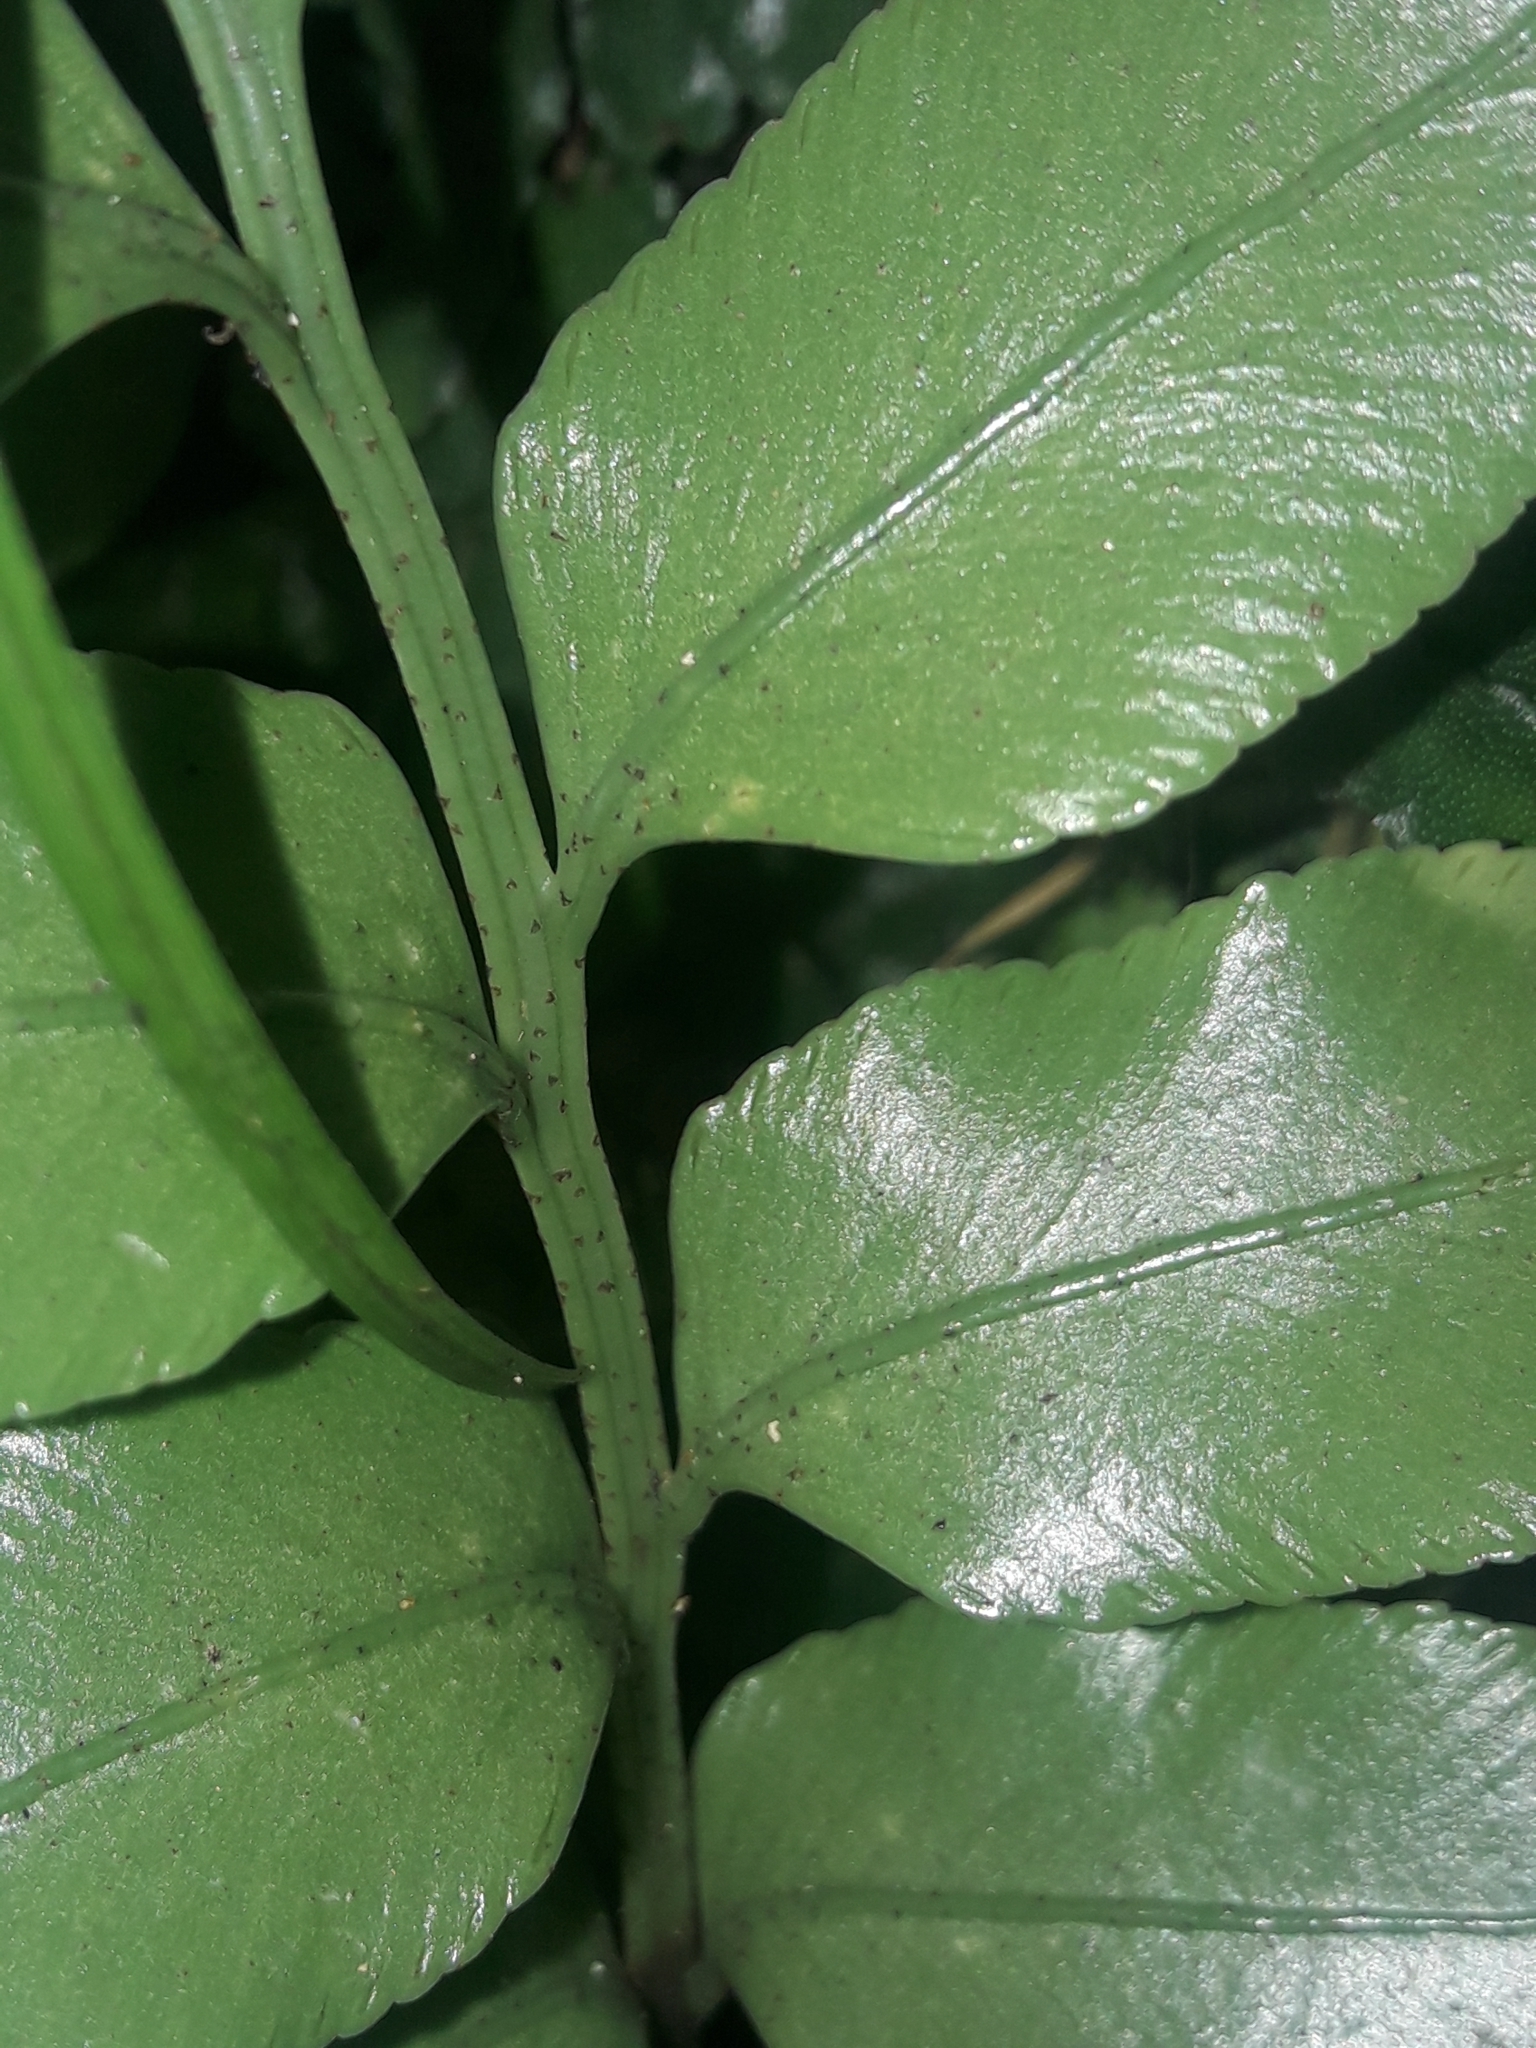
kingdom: Plantae
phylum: Tracheophyta
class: Polypodiopsida
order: Polypodiales
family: Aspleniaceae
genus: Asplenium
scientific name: Asplenium lepidotum
